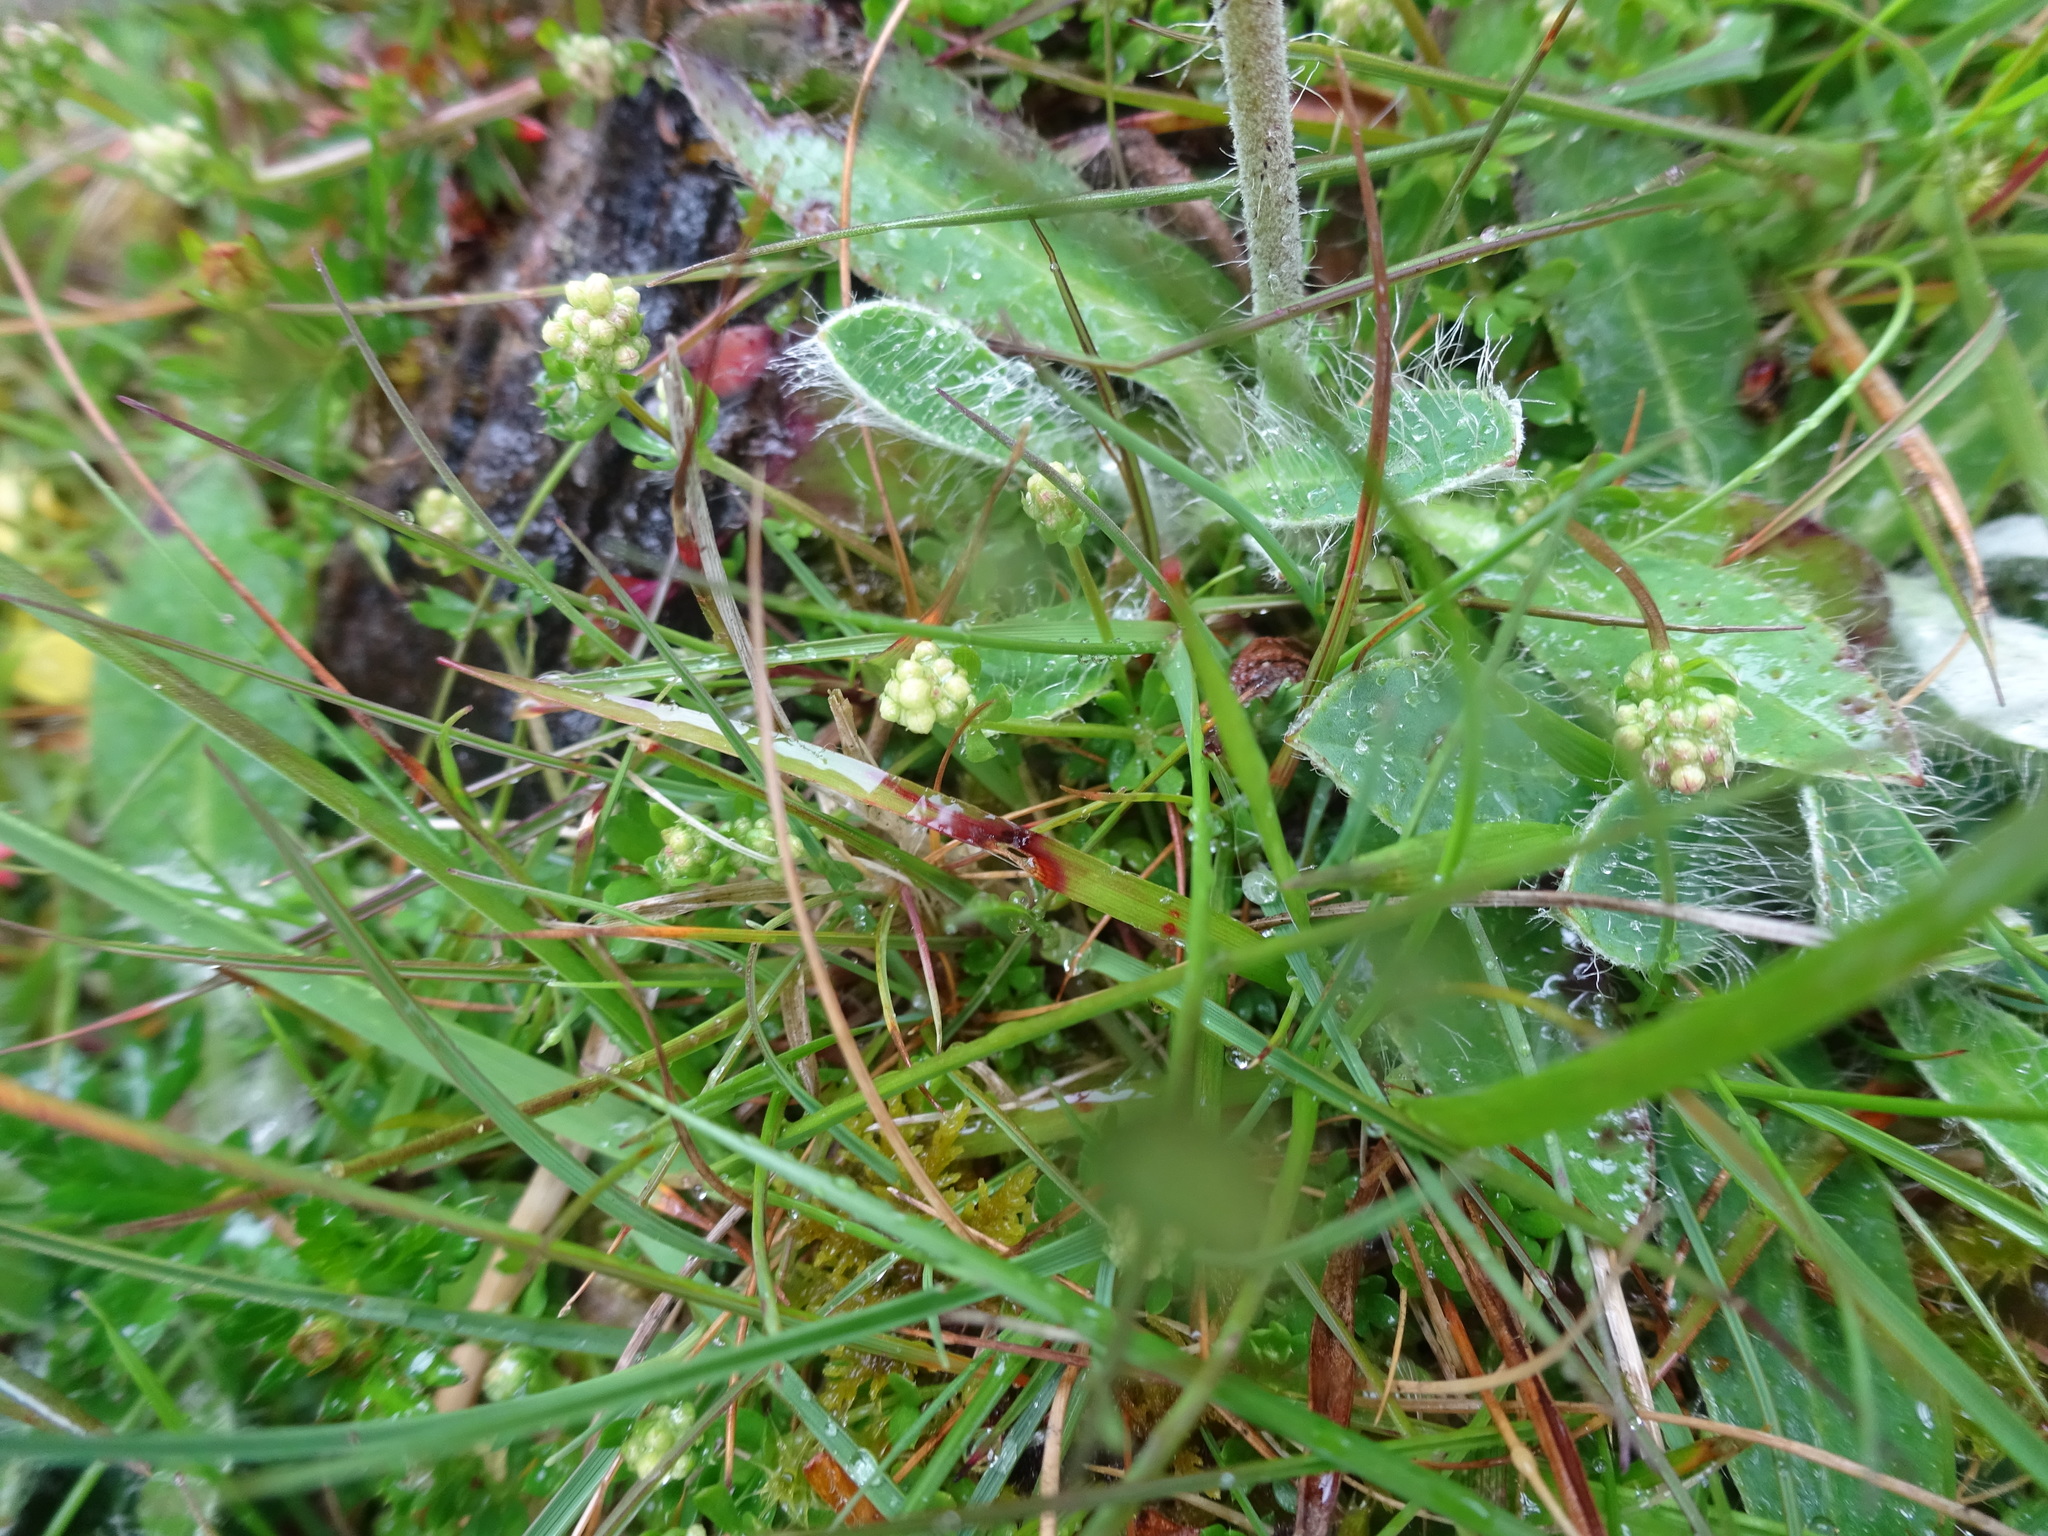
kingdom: Plantae
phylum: Tracheophyta
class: Magnoliopsida
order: Asterales
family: Asteraceae
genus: Pilosella
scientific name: Pilosella officinarum
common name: Mouse-ear hawkweed
